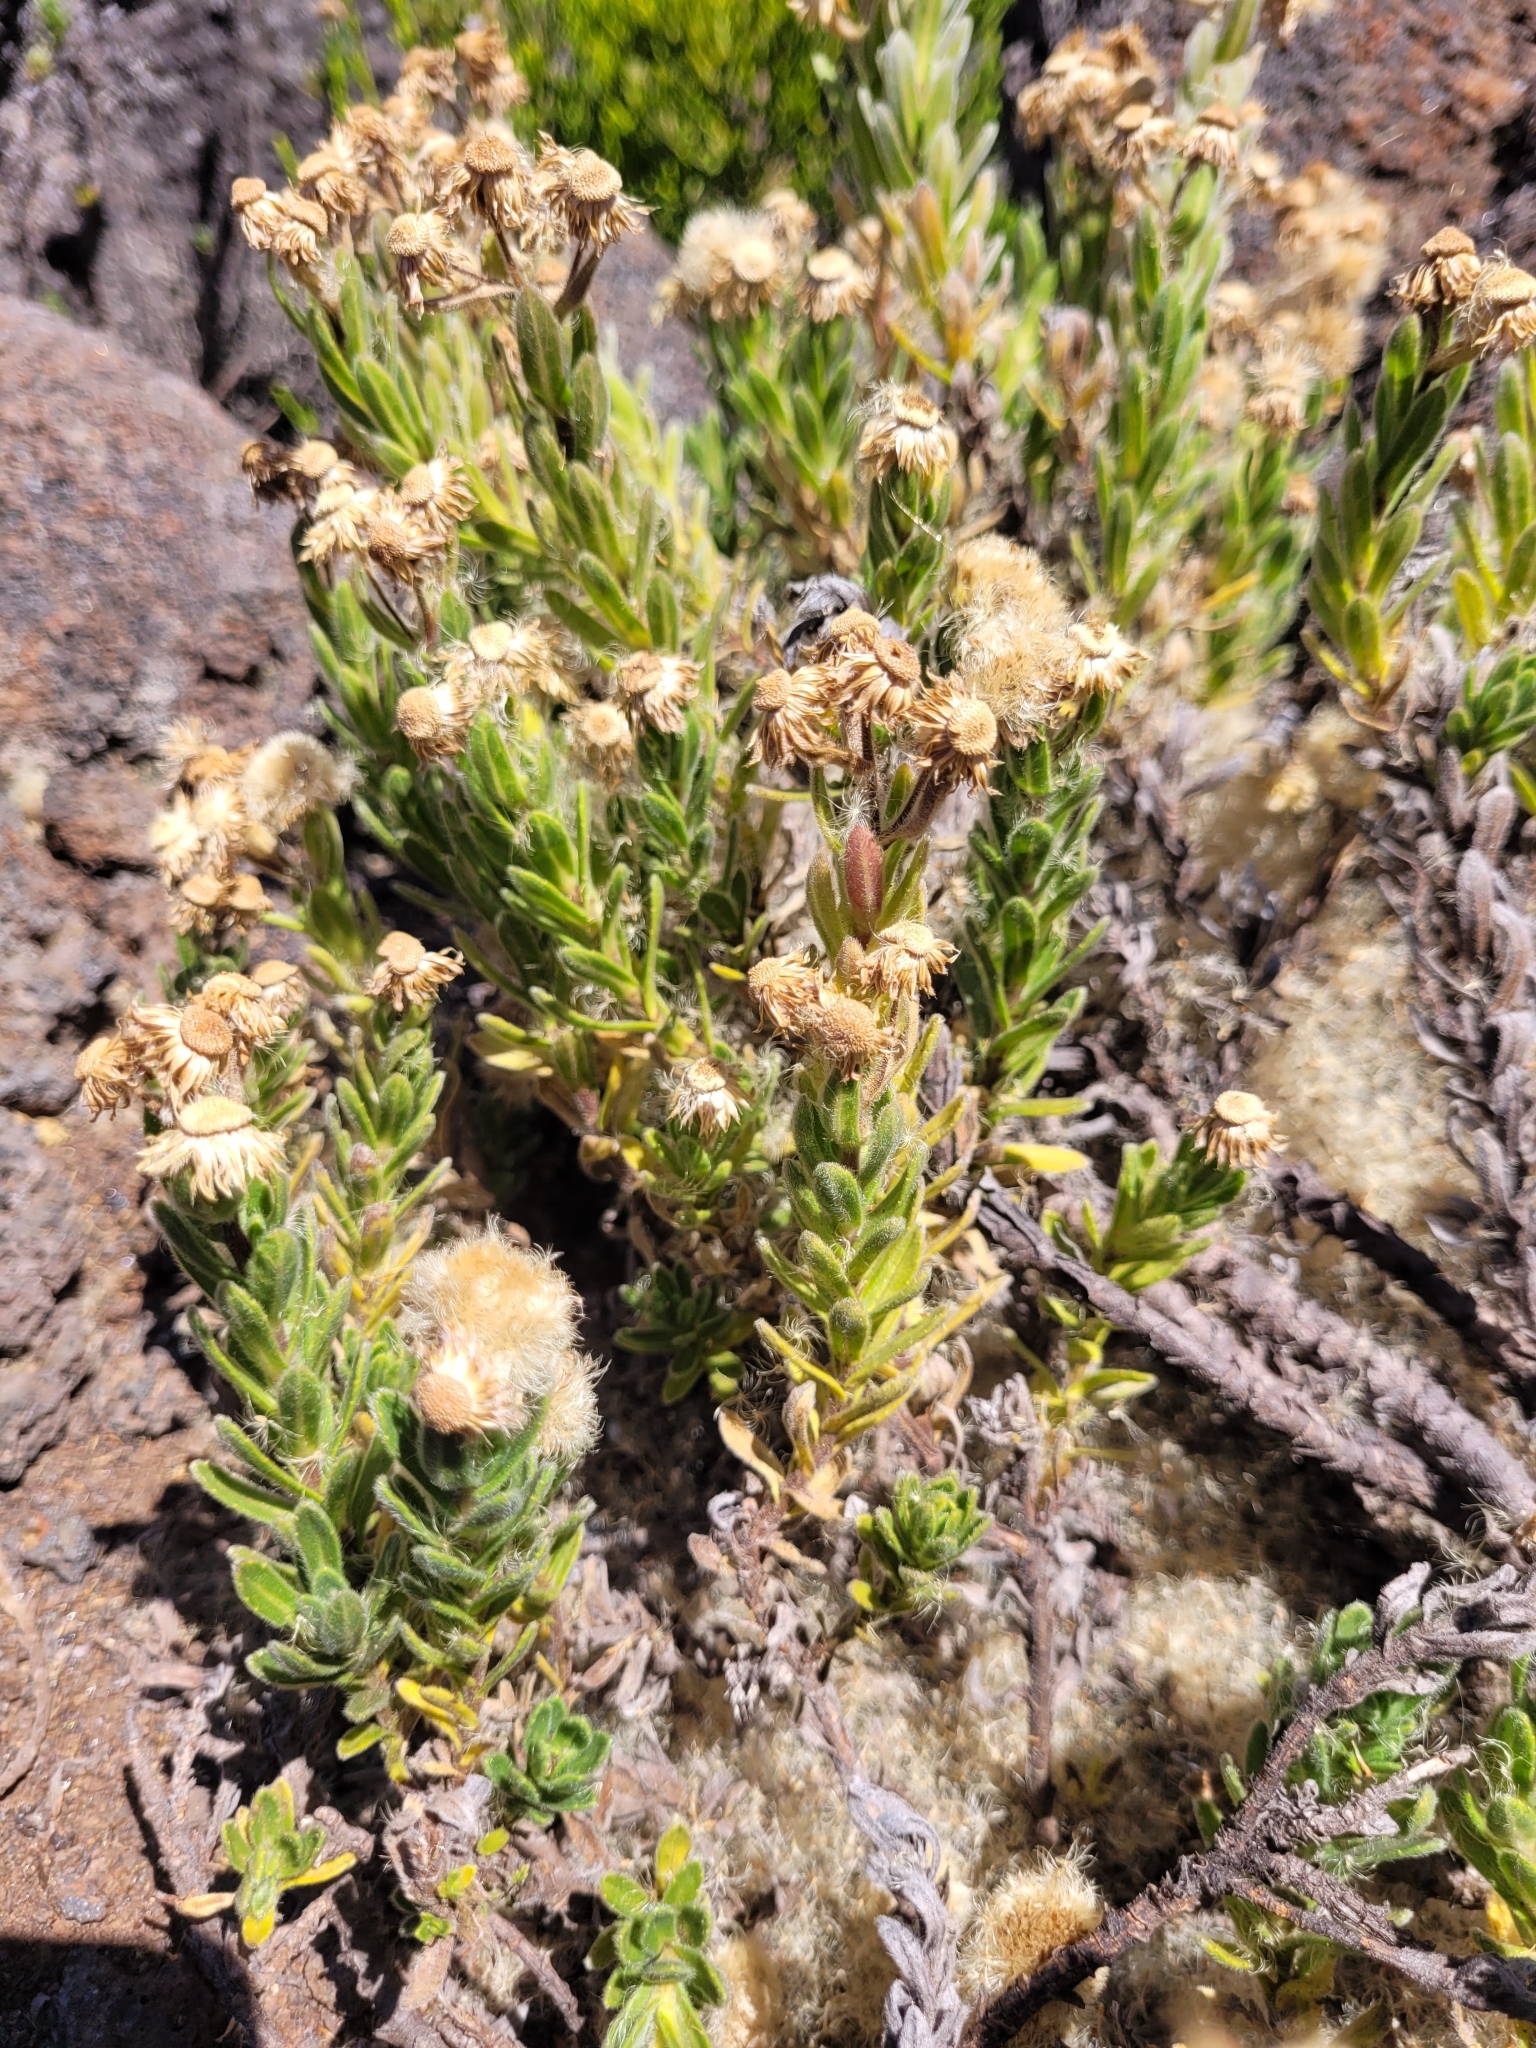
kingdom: Plantae
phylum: Tracheophyta
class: Magnoliopsida
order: Asterales
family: Asteraceae
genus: Psiadia
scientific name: Psiadia callocephala
